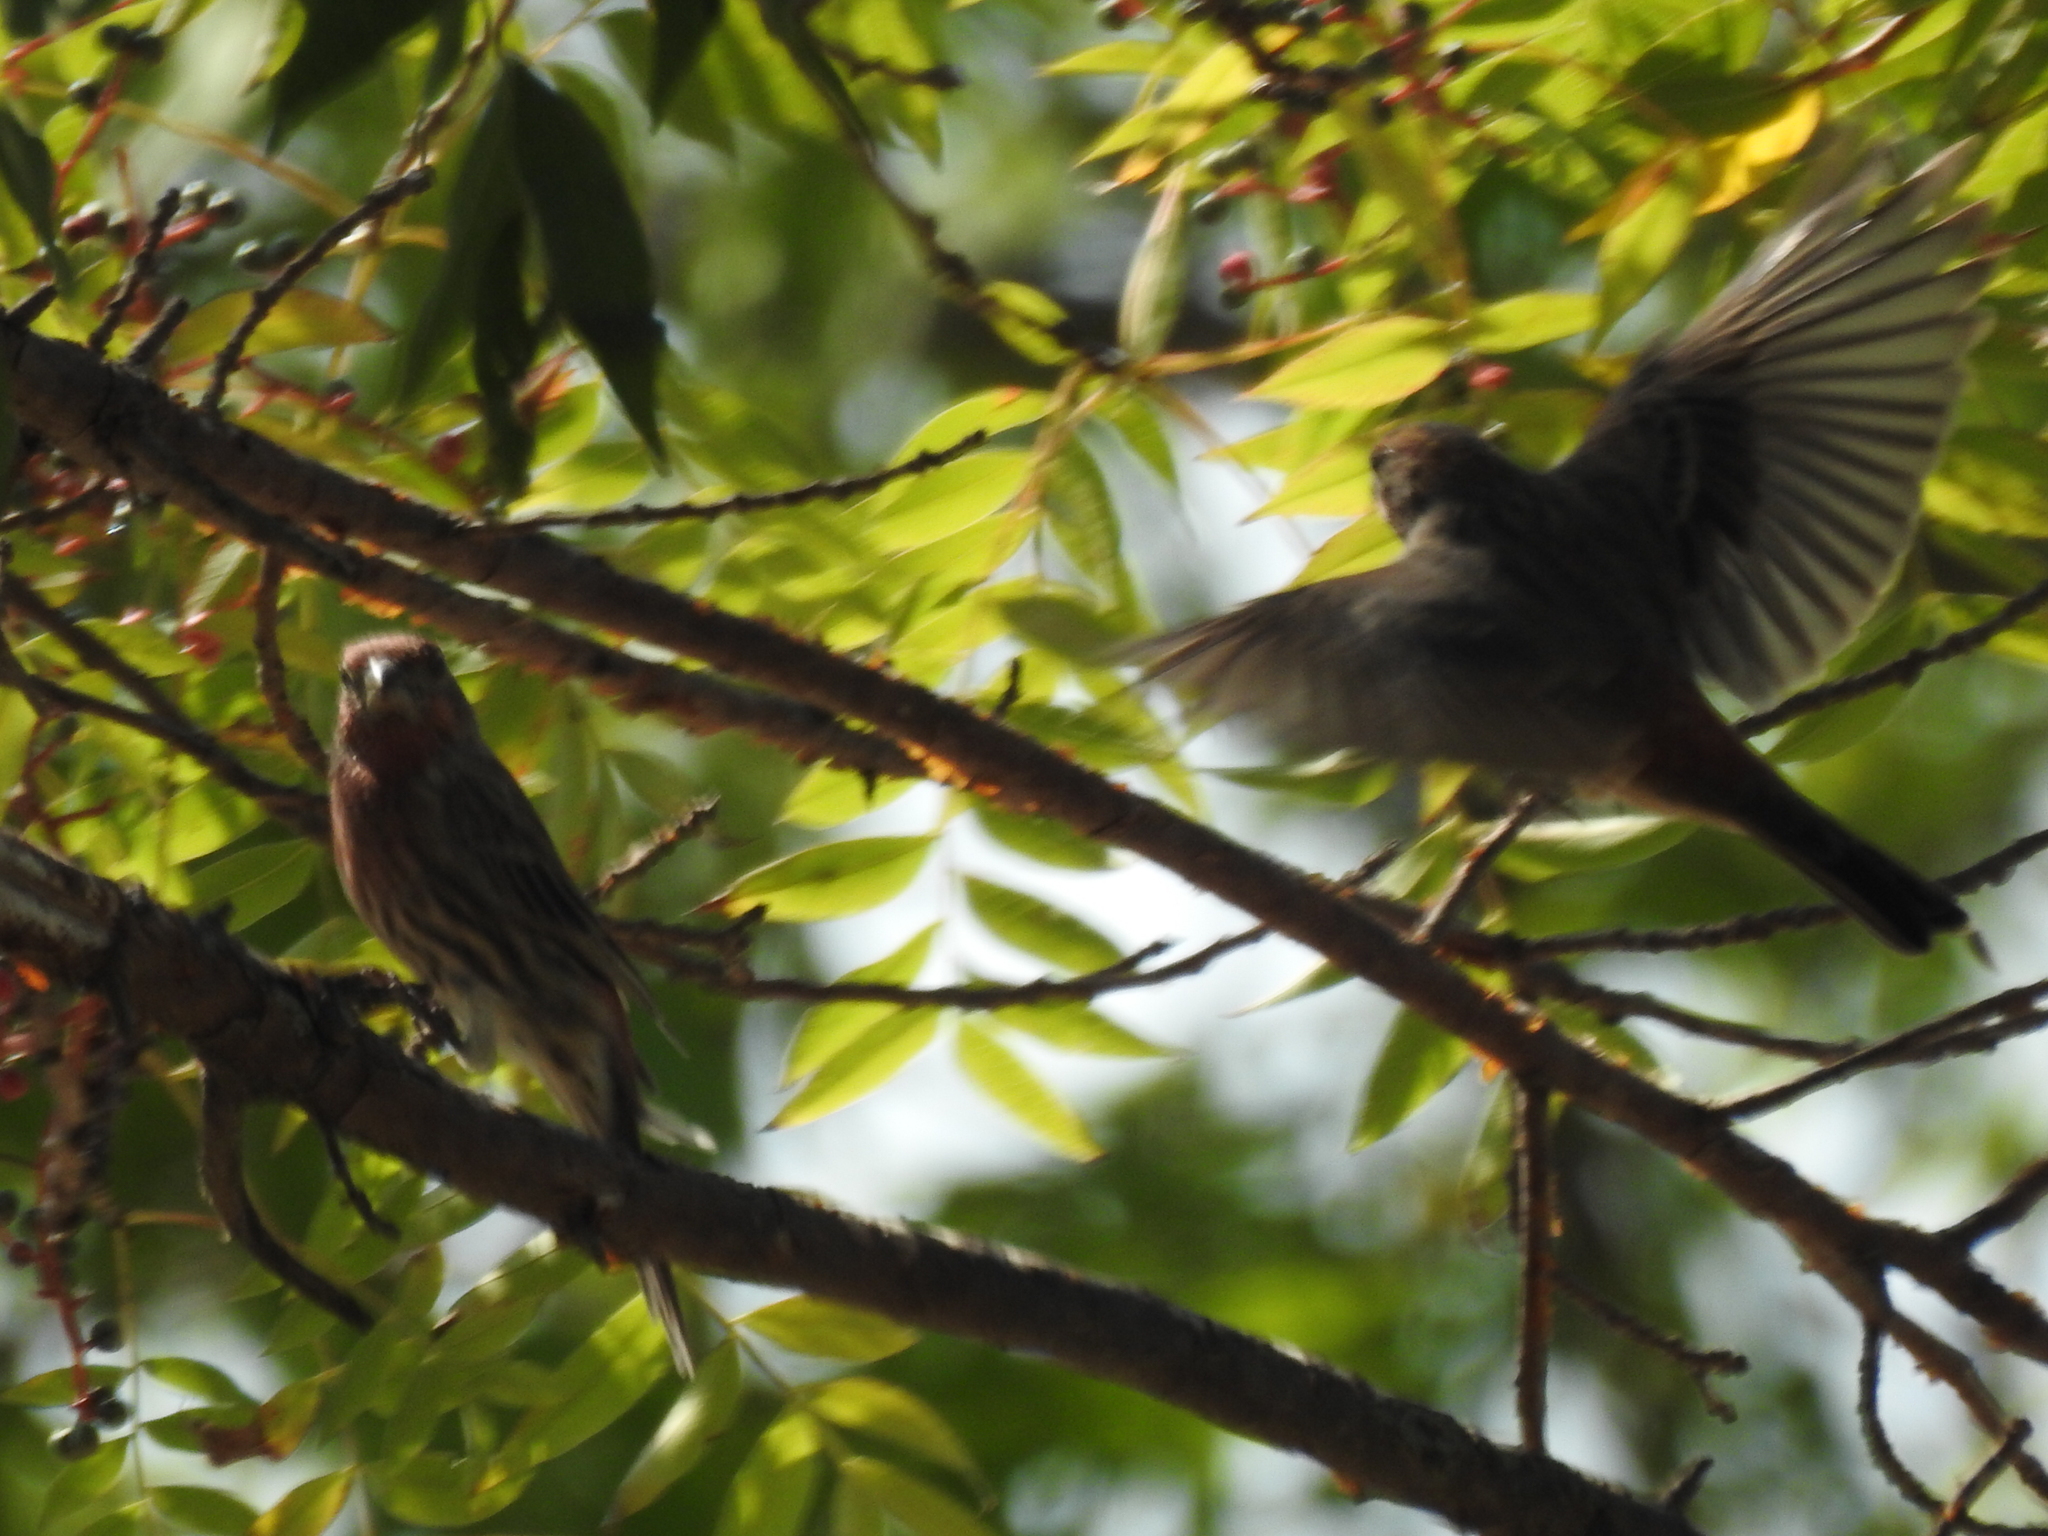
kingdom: Animalia
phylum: Chordata
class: Aves
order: Passeriformes
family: Fringillidae
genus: Haemorhous
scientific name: Haemorhous mexicanus
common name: House finch
